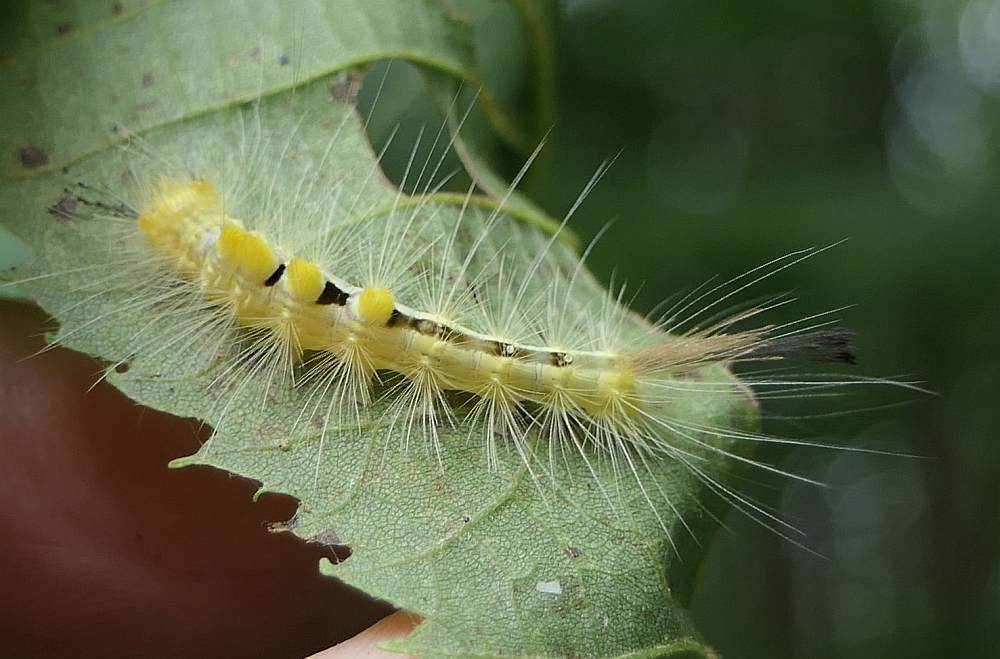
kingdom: Animalia
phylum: Arthropoda
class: Insecta
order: Lepidoptera
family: Erebidae
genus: Orgyia
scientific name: Orgyia definita
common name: Definite tussock moth
